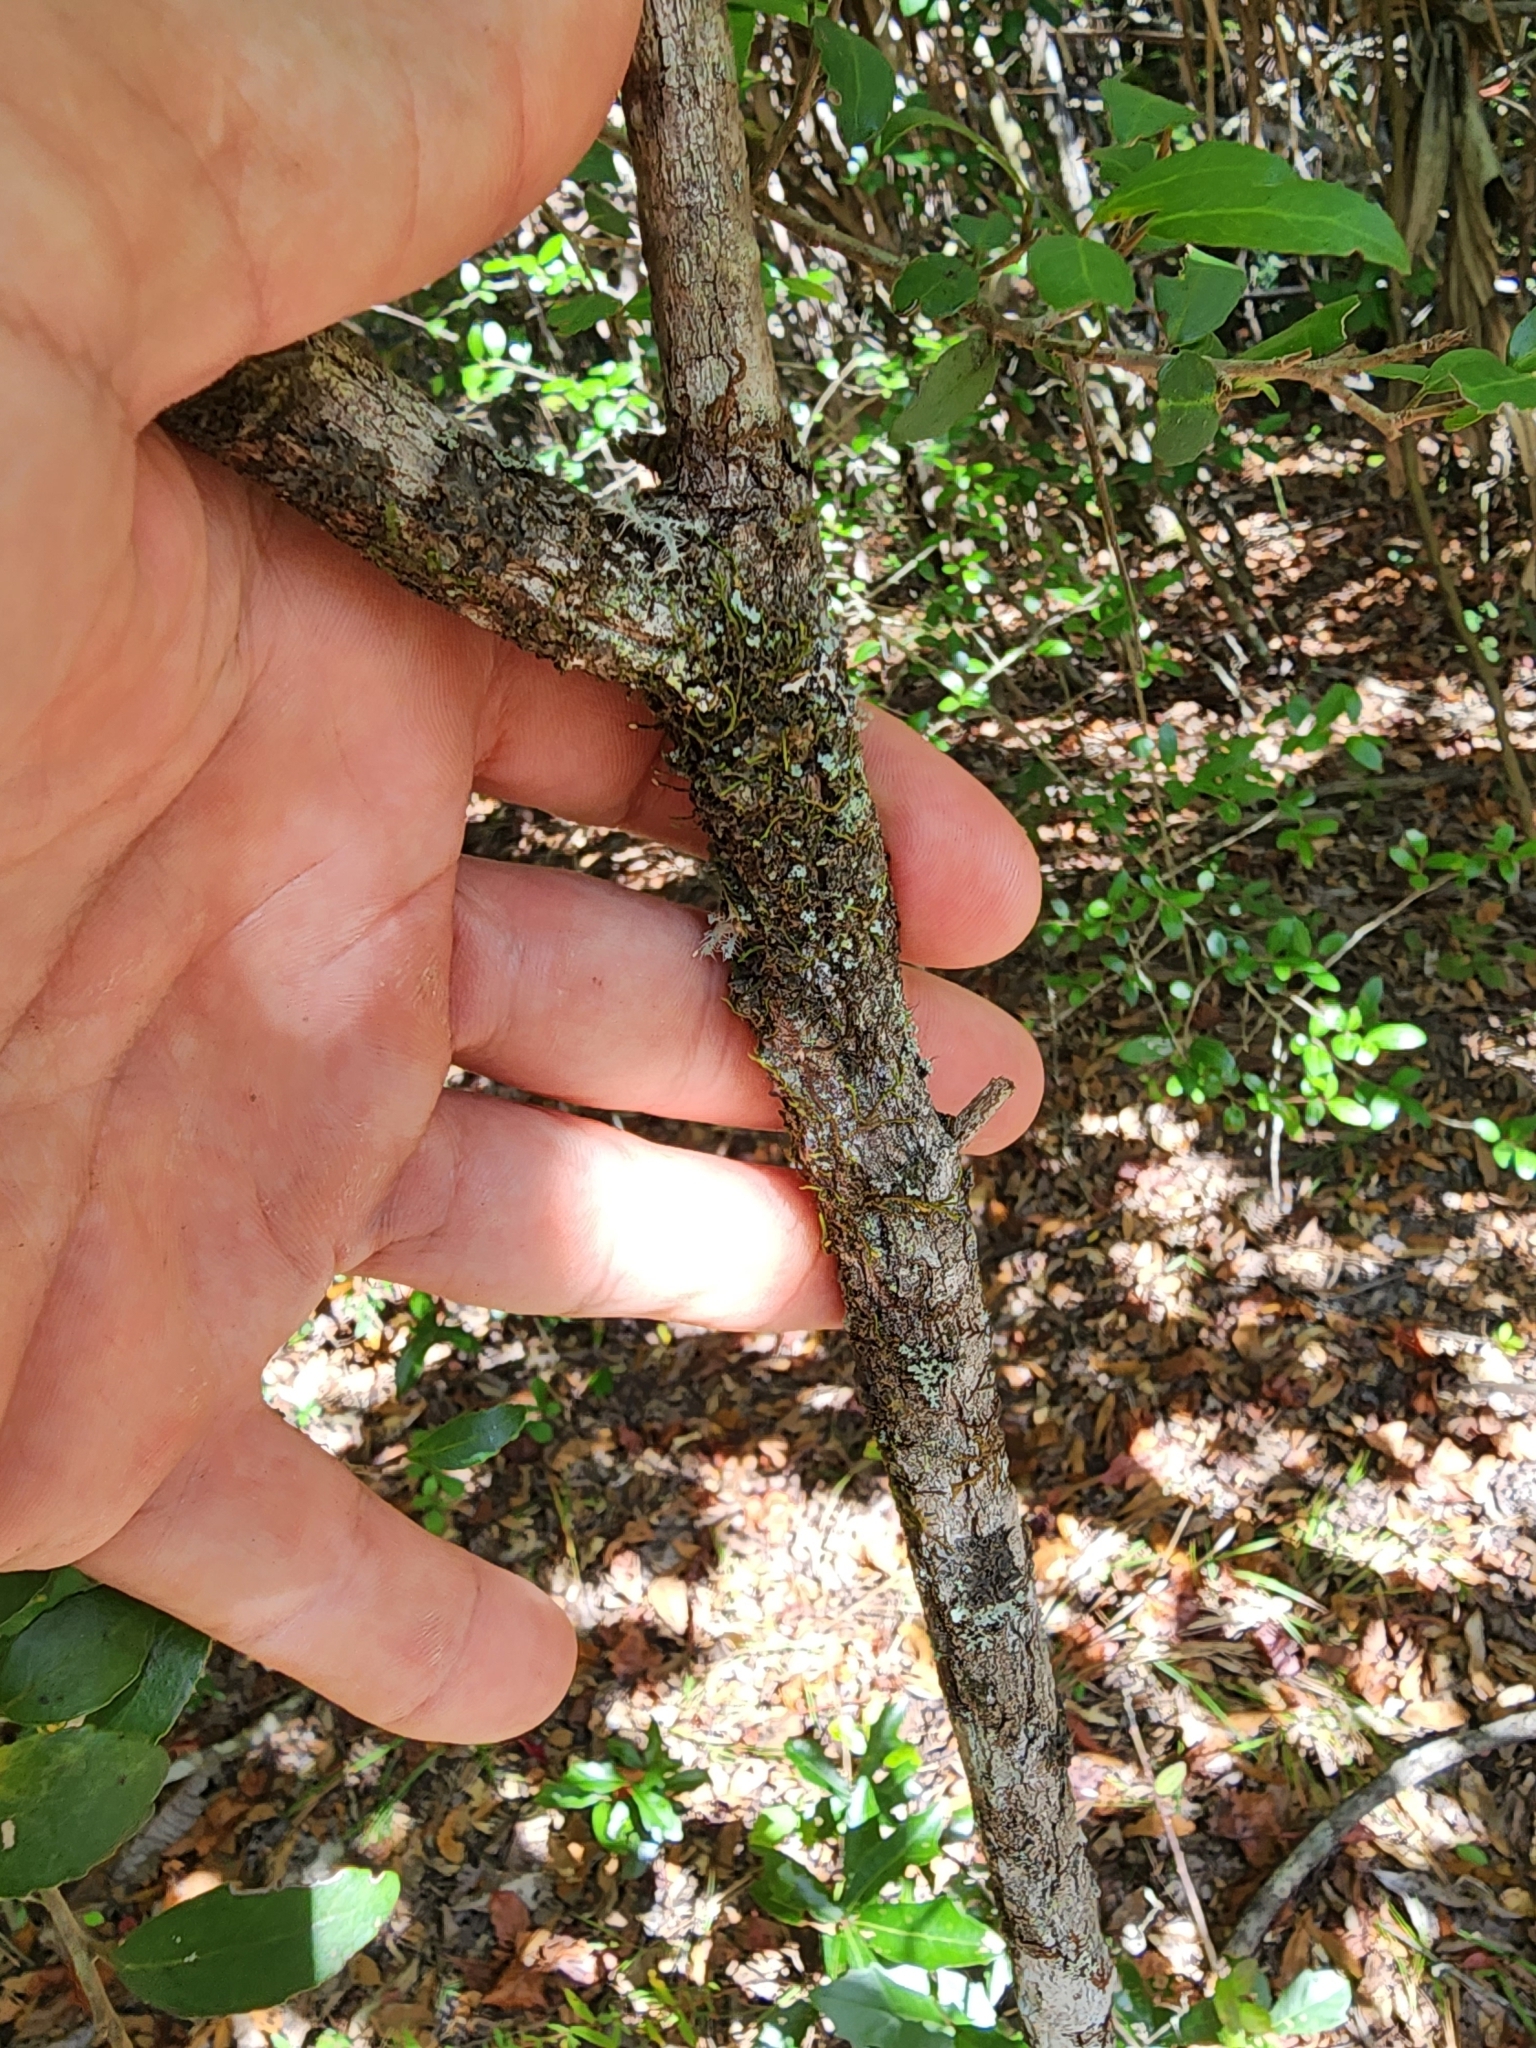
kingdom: Plantae
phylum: Tracheophyta
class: Magnoliopsida
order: Laurales
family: Lauraceae
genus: Sassafras
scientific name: Sassafras albidum
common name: Sassafras
